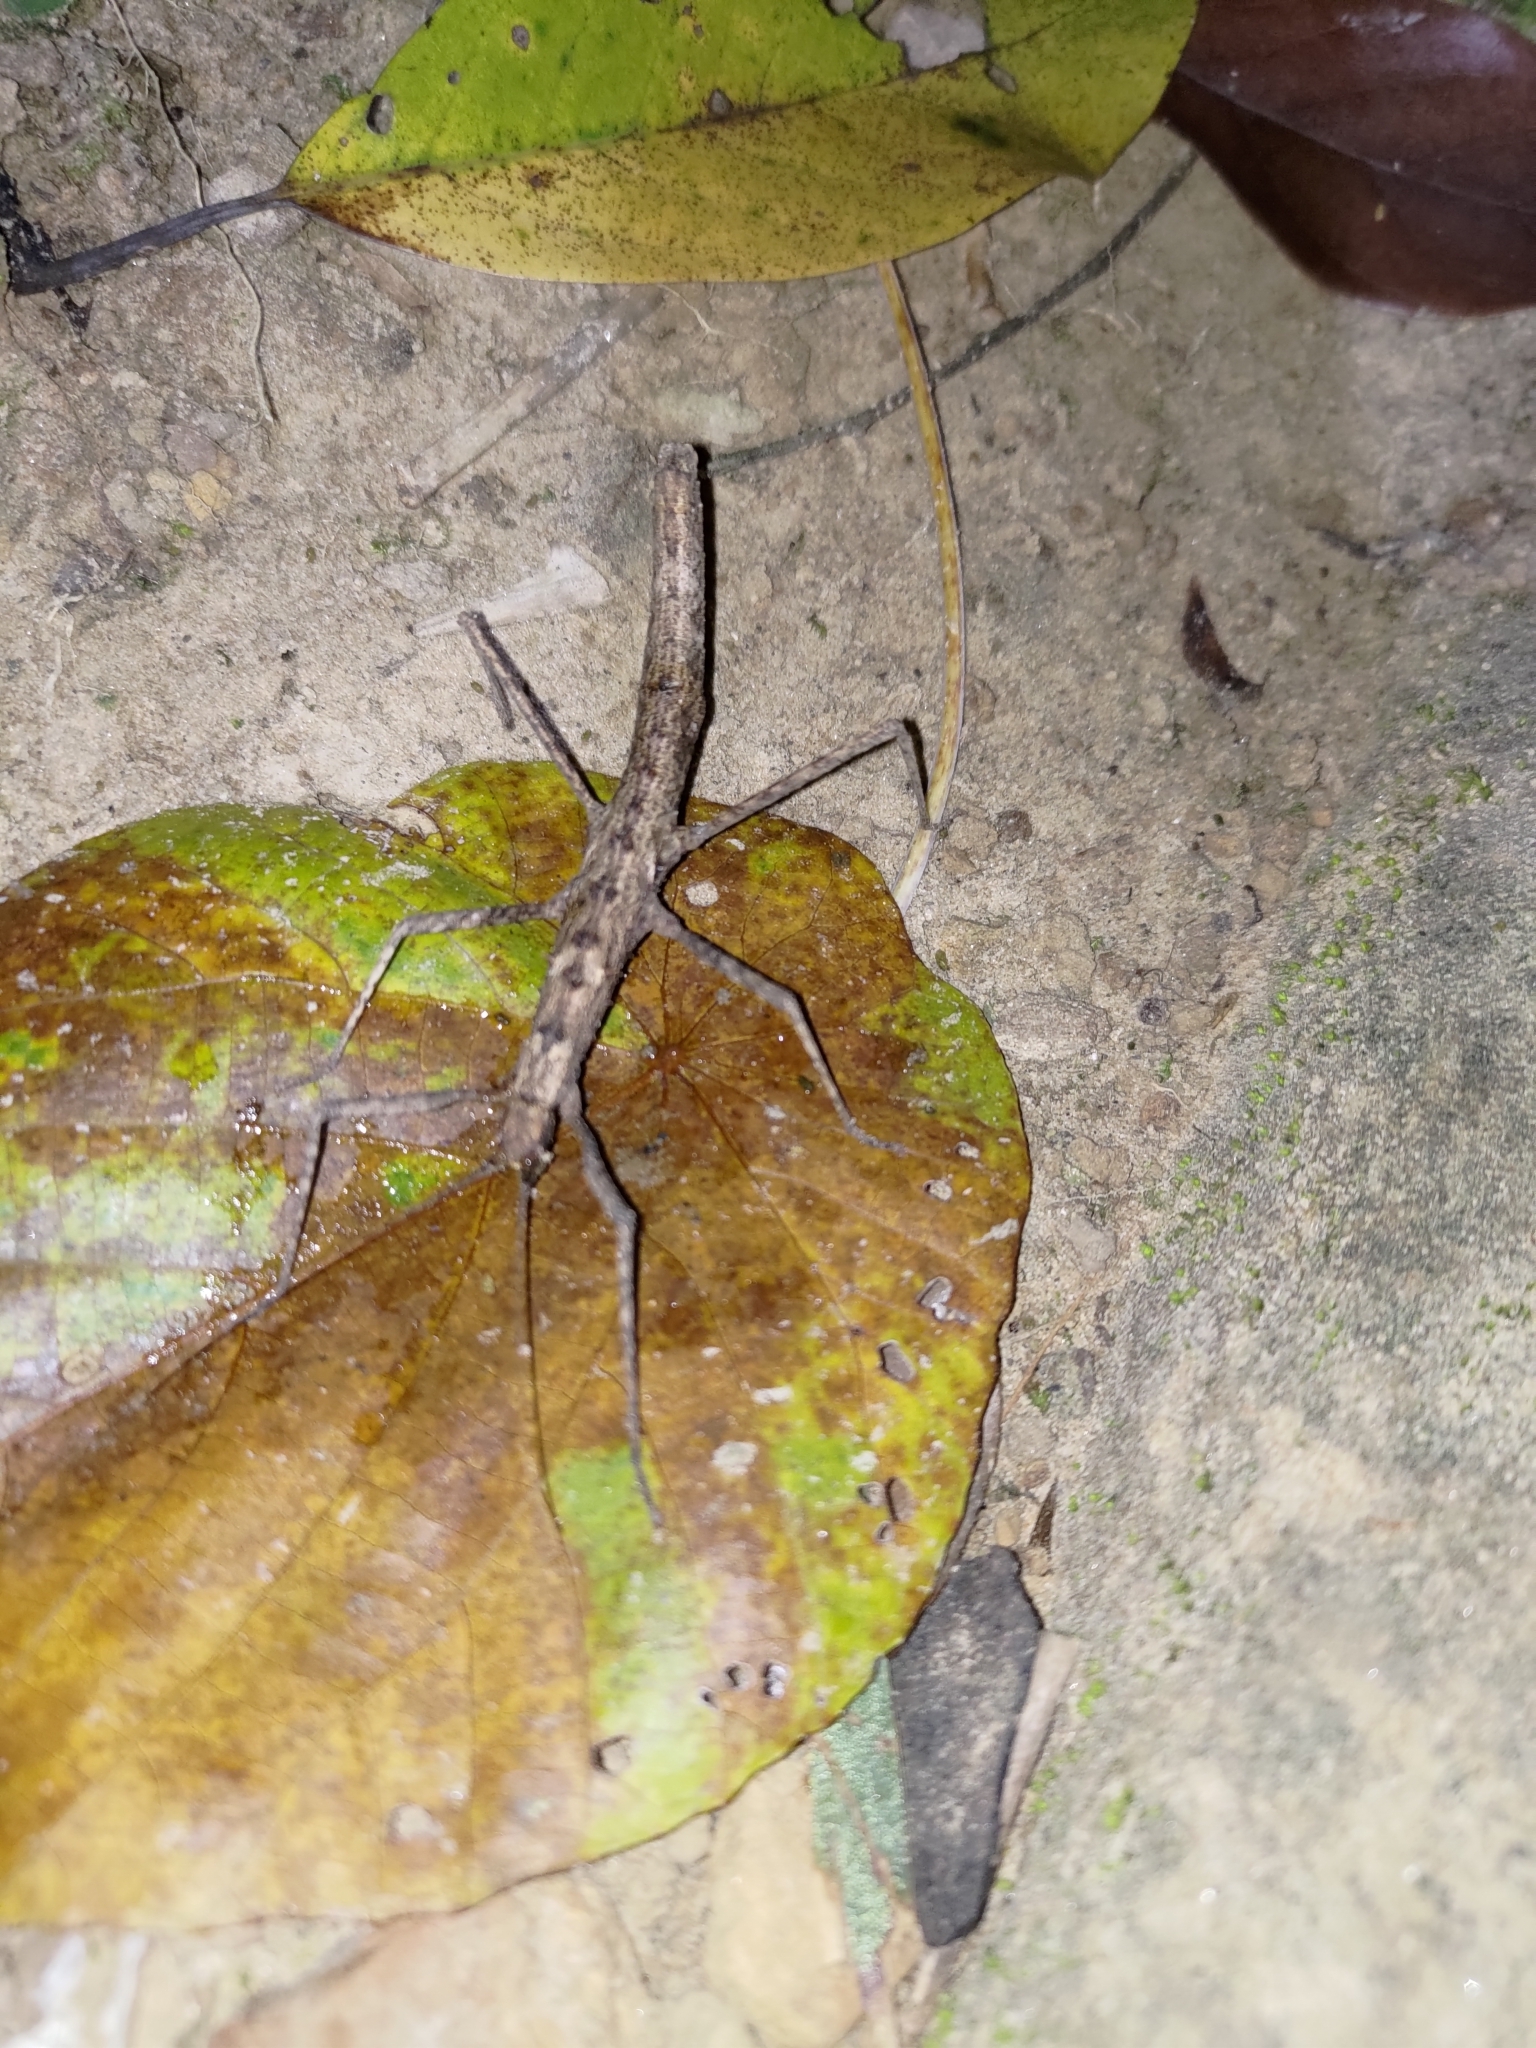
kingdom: Animalia
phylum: Arthropoda
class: Insecta
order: Phasmida
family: Lonchodidae
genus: Neohirasea
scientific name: Neohirasea japonica
